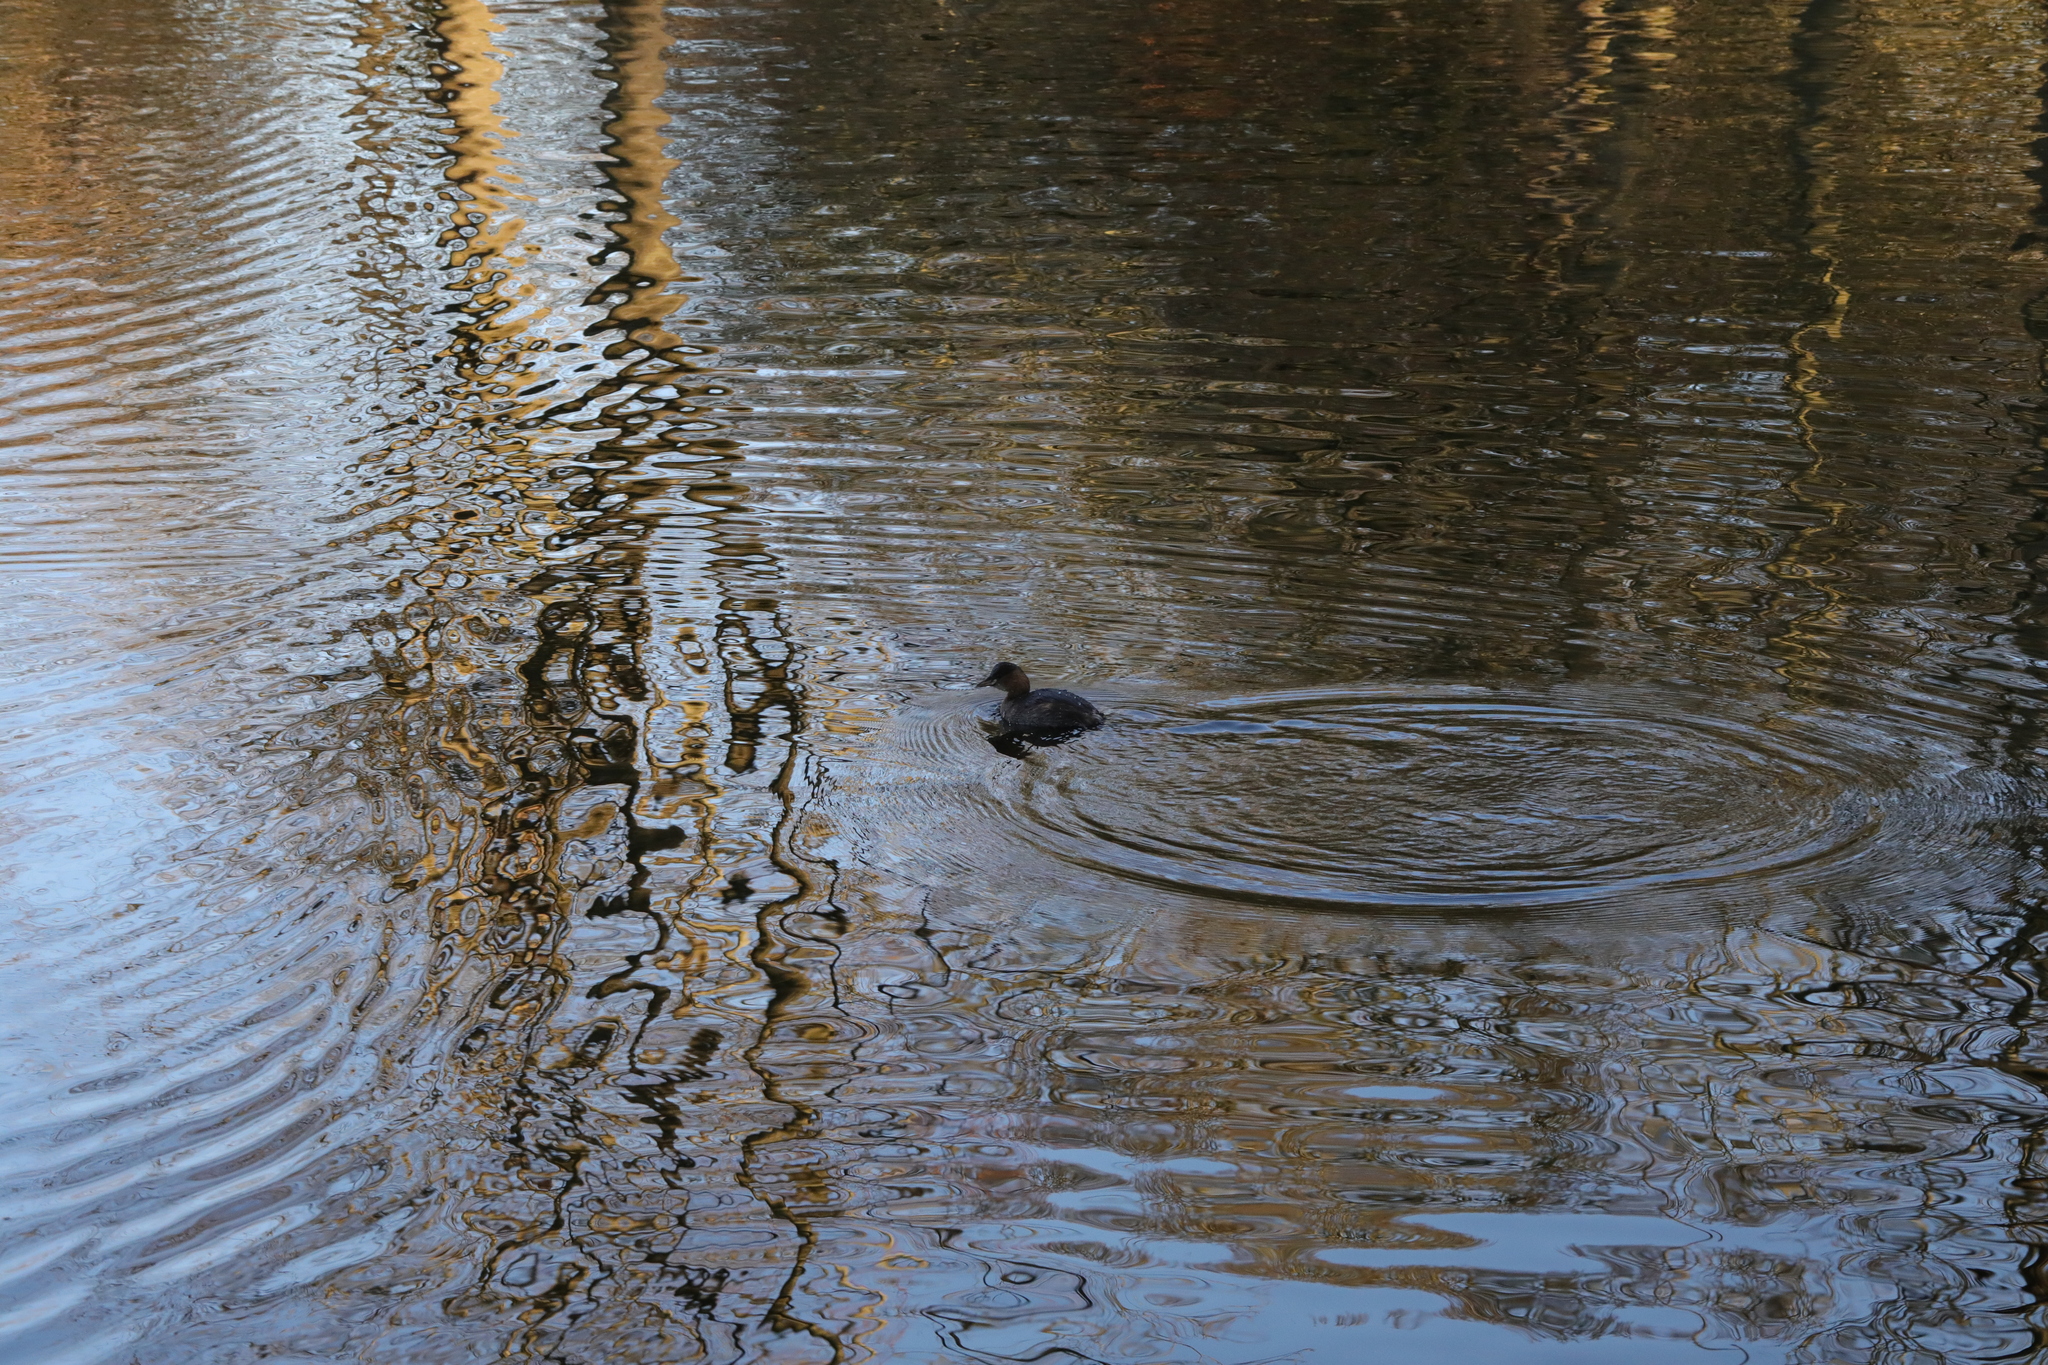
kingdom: Animalia
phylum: Chordata
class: Aves
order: Podicipediformes
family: Podicipedidae
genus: Tachybaptus
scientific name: Tachybaptus ruficollis
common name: Little grebe
